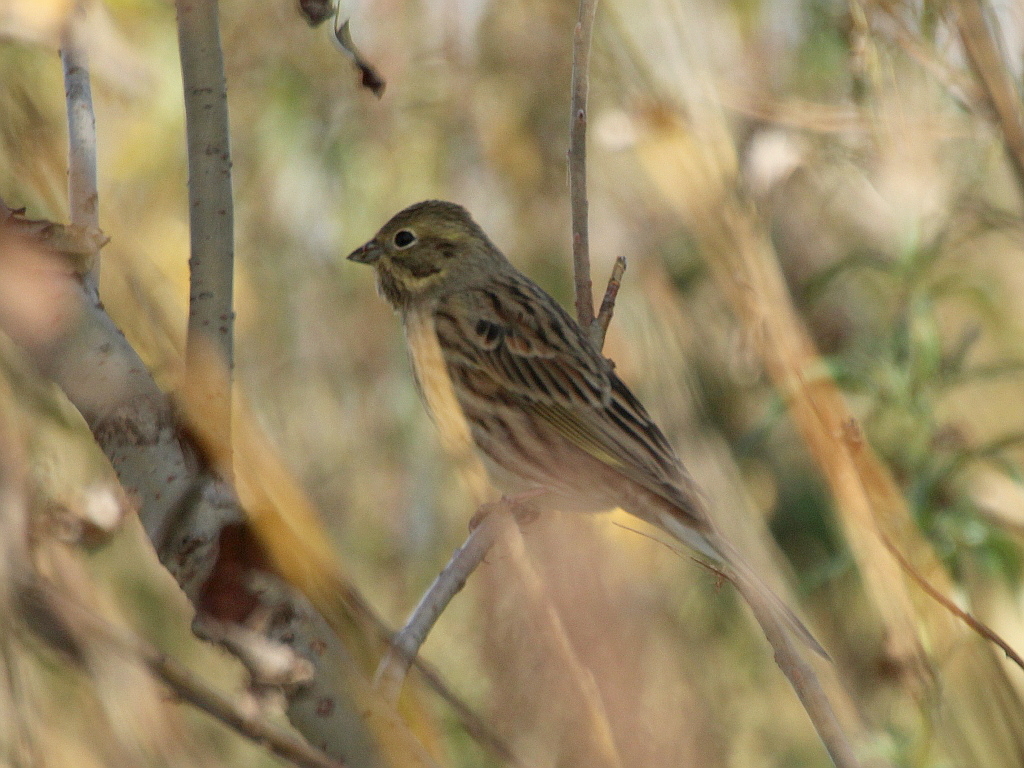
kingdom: Animalia
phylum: Chordata
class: Aves
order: Passeriformes
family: Emberizidae
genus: Emberiza
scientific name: Emberiza
